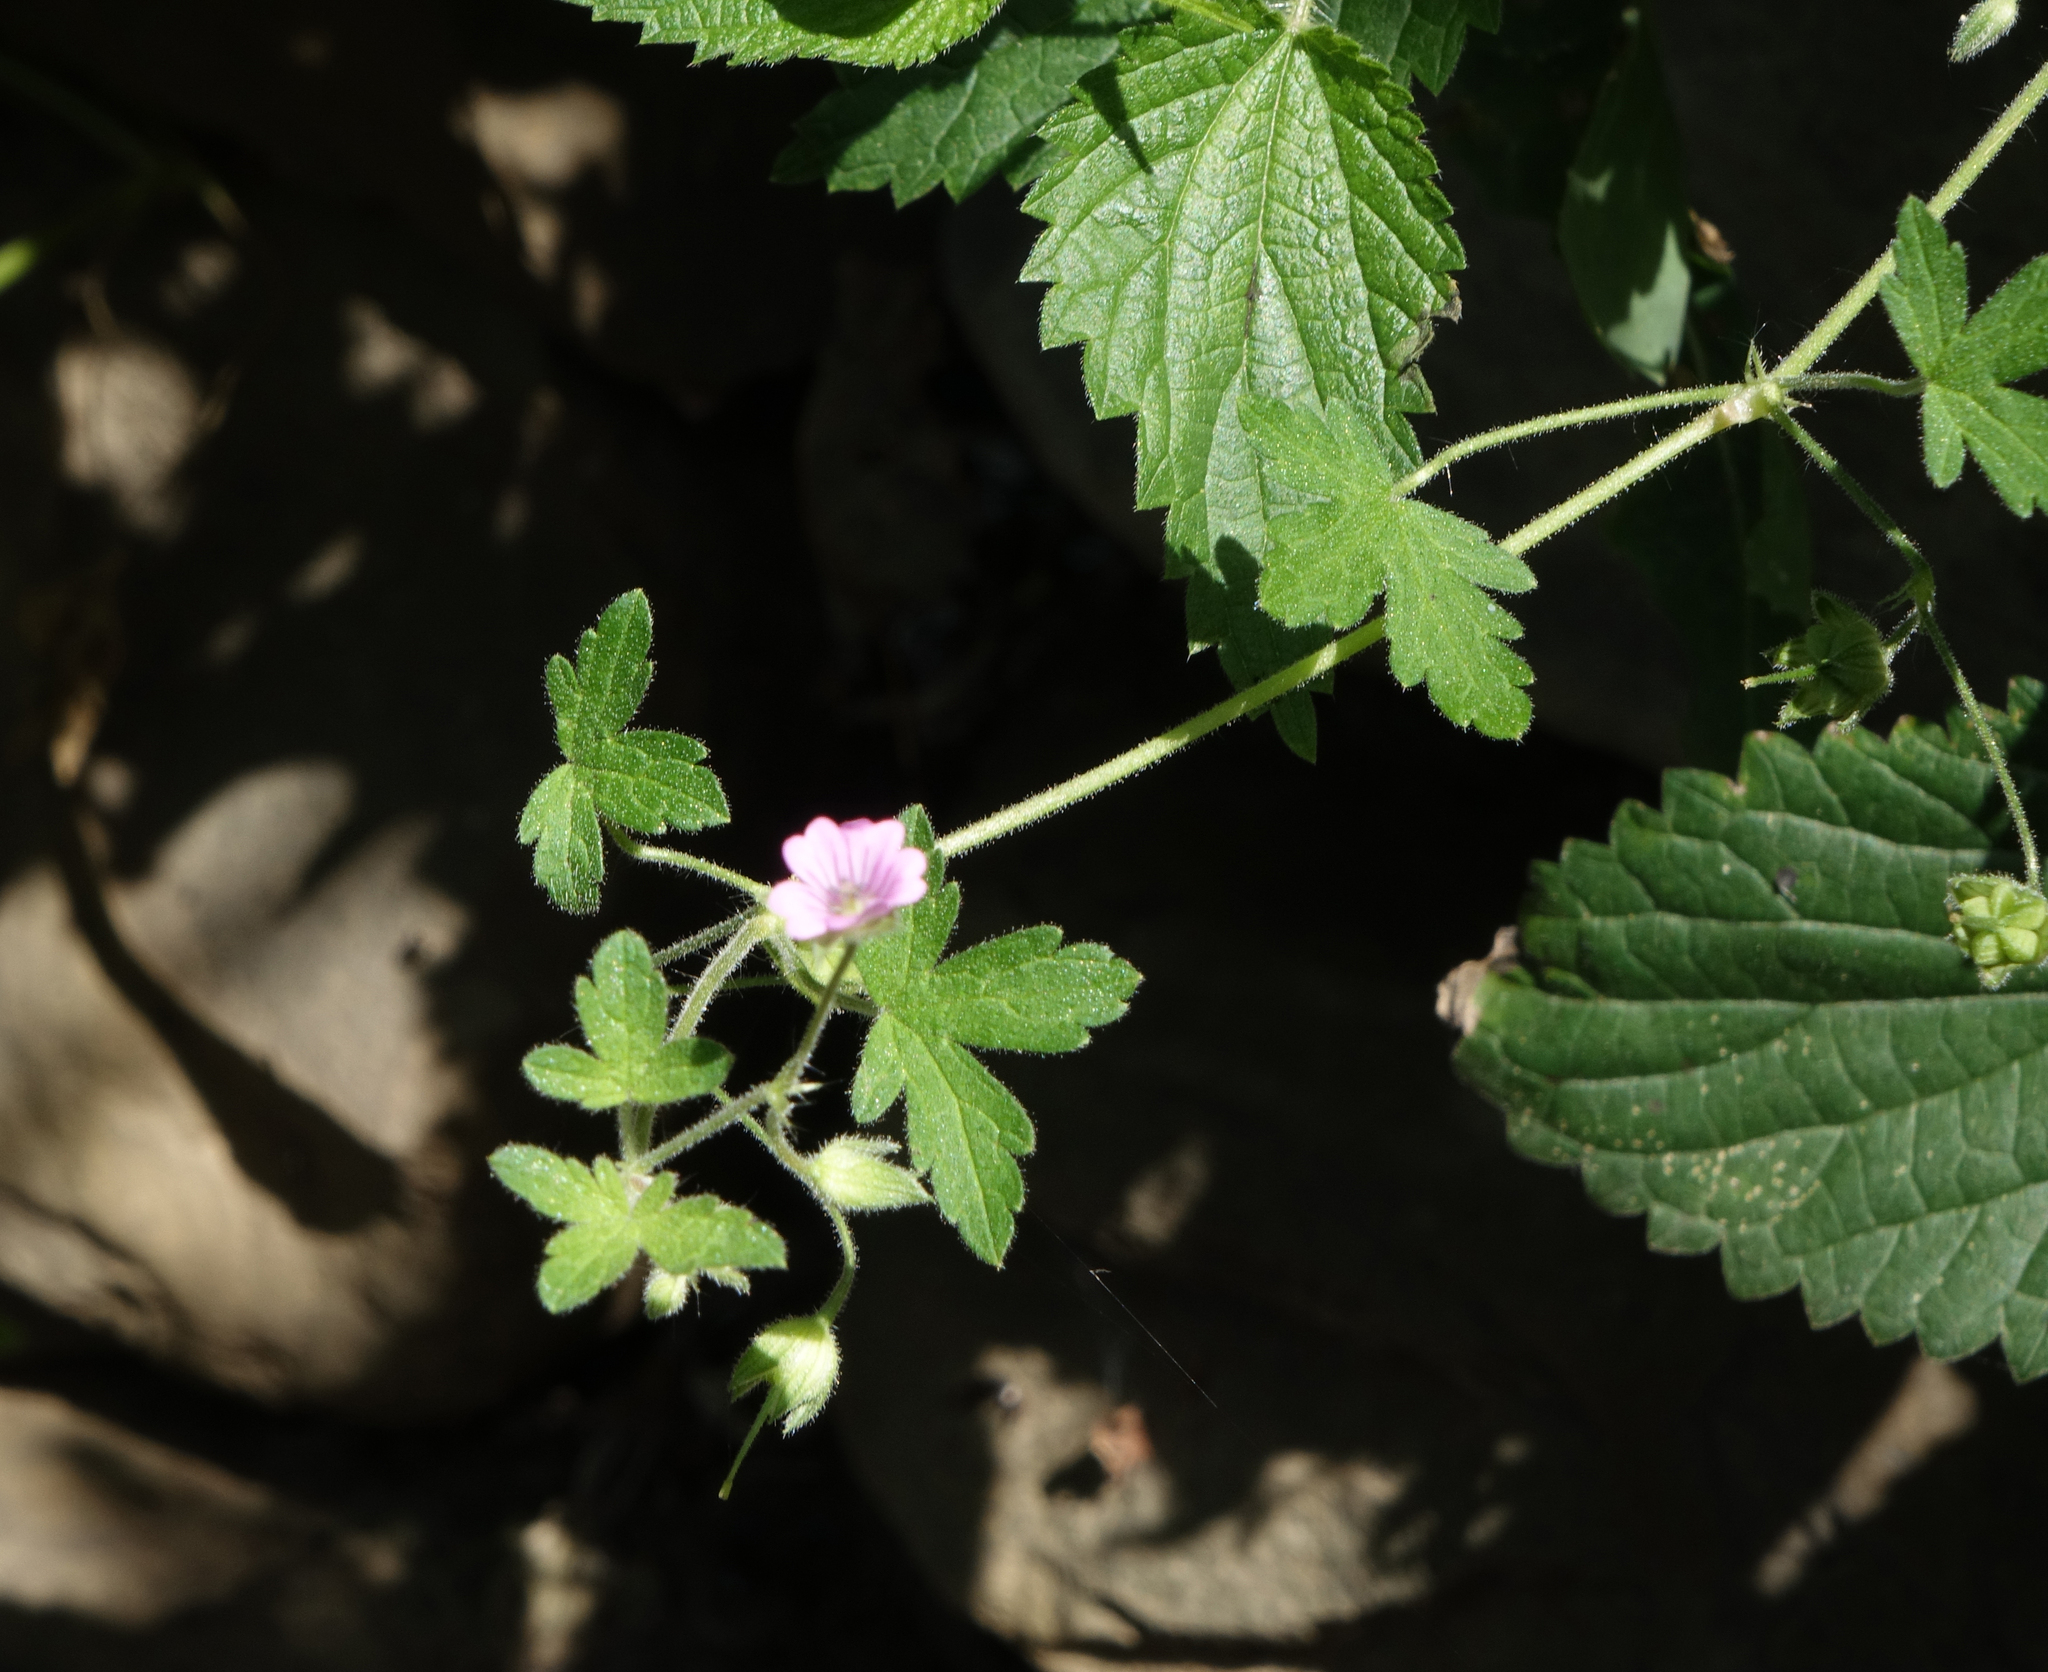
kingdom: Plantae
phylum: Tracheophyta
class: Magnoliopsida
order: Geraniales
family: Geraniaceae
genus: Geranium
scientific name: Geranium sibiricum
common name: Siberian crane's-bill
